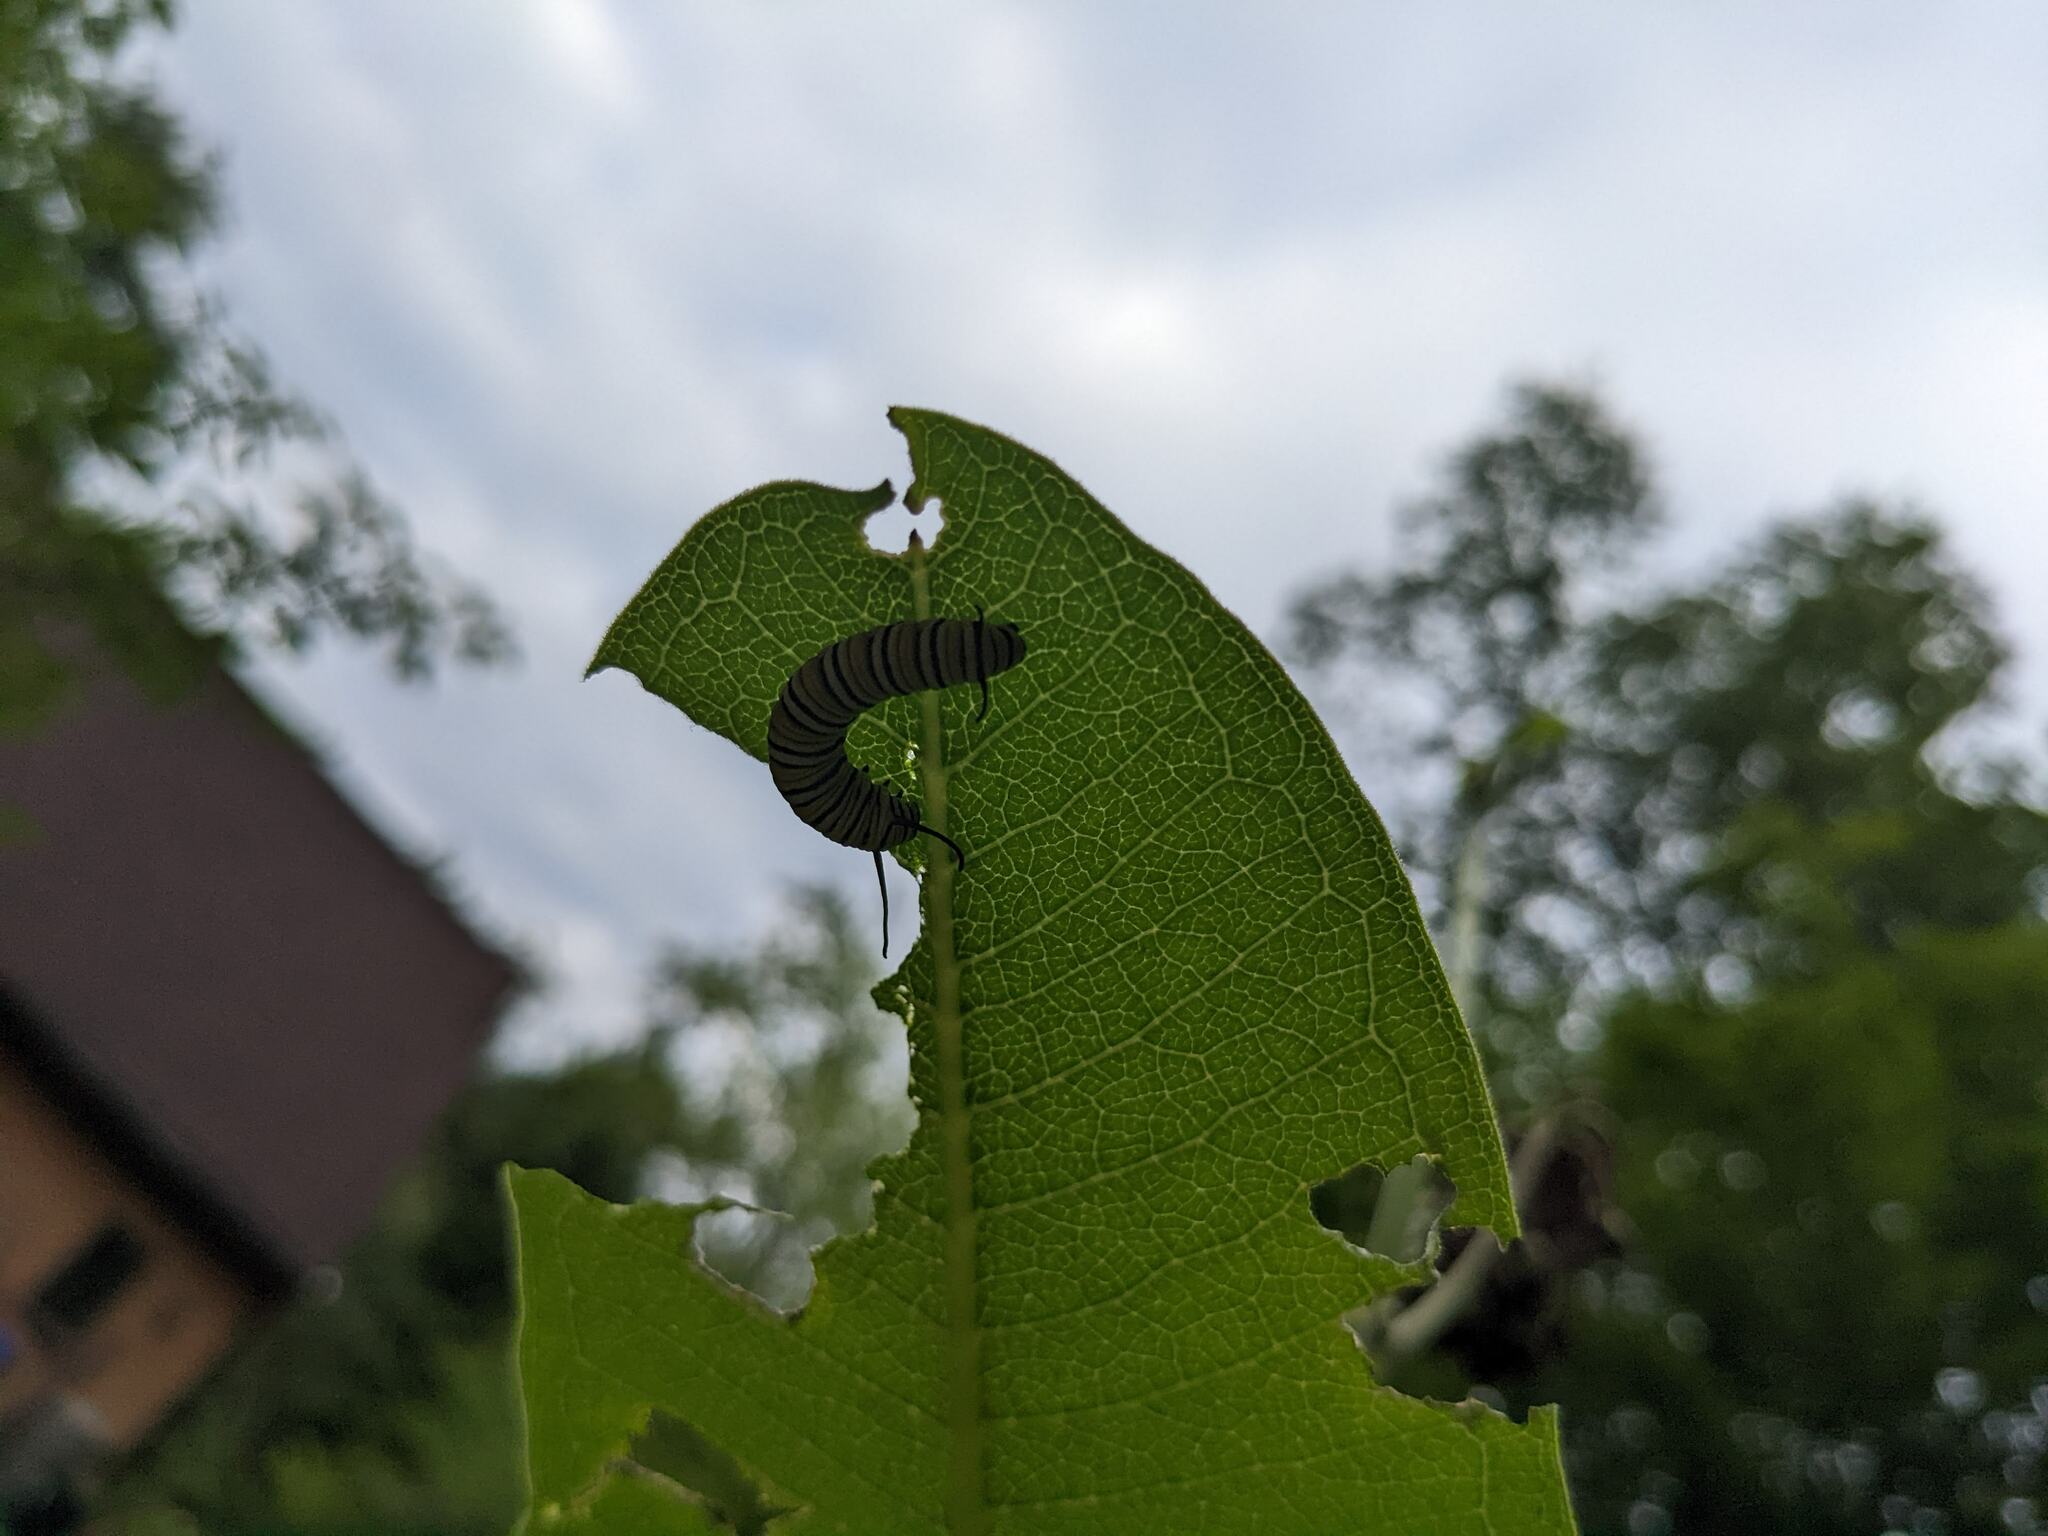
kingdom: Animalia
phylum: Arthropoda
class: Insecta
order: Lepidoptera
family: Nymphalidae
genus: Danaus
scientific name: Danaus plexippus
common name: Monarch
